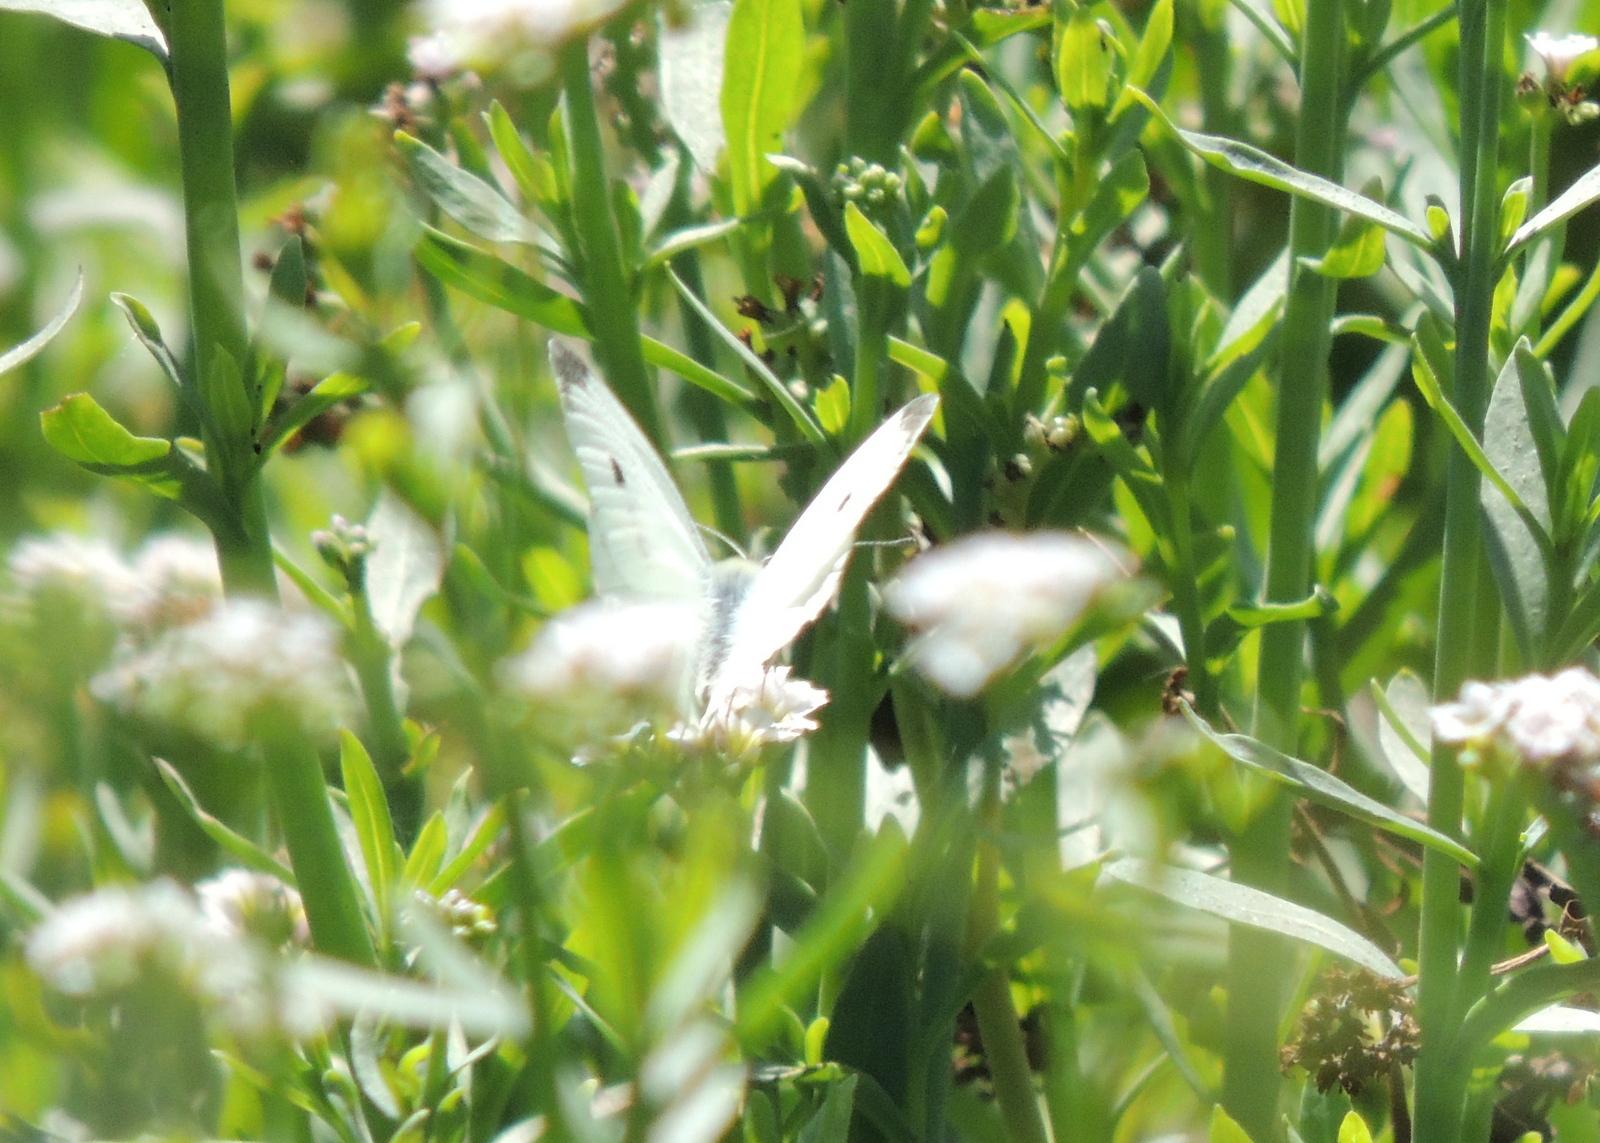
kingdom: Animalia
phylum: Arthropoda
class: Insecta
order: Lepidoptera
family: Pieridae
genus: Pieris
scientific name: Pieris rapae
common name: Small white
